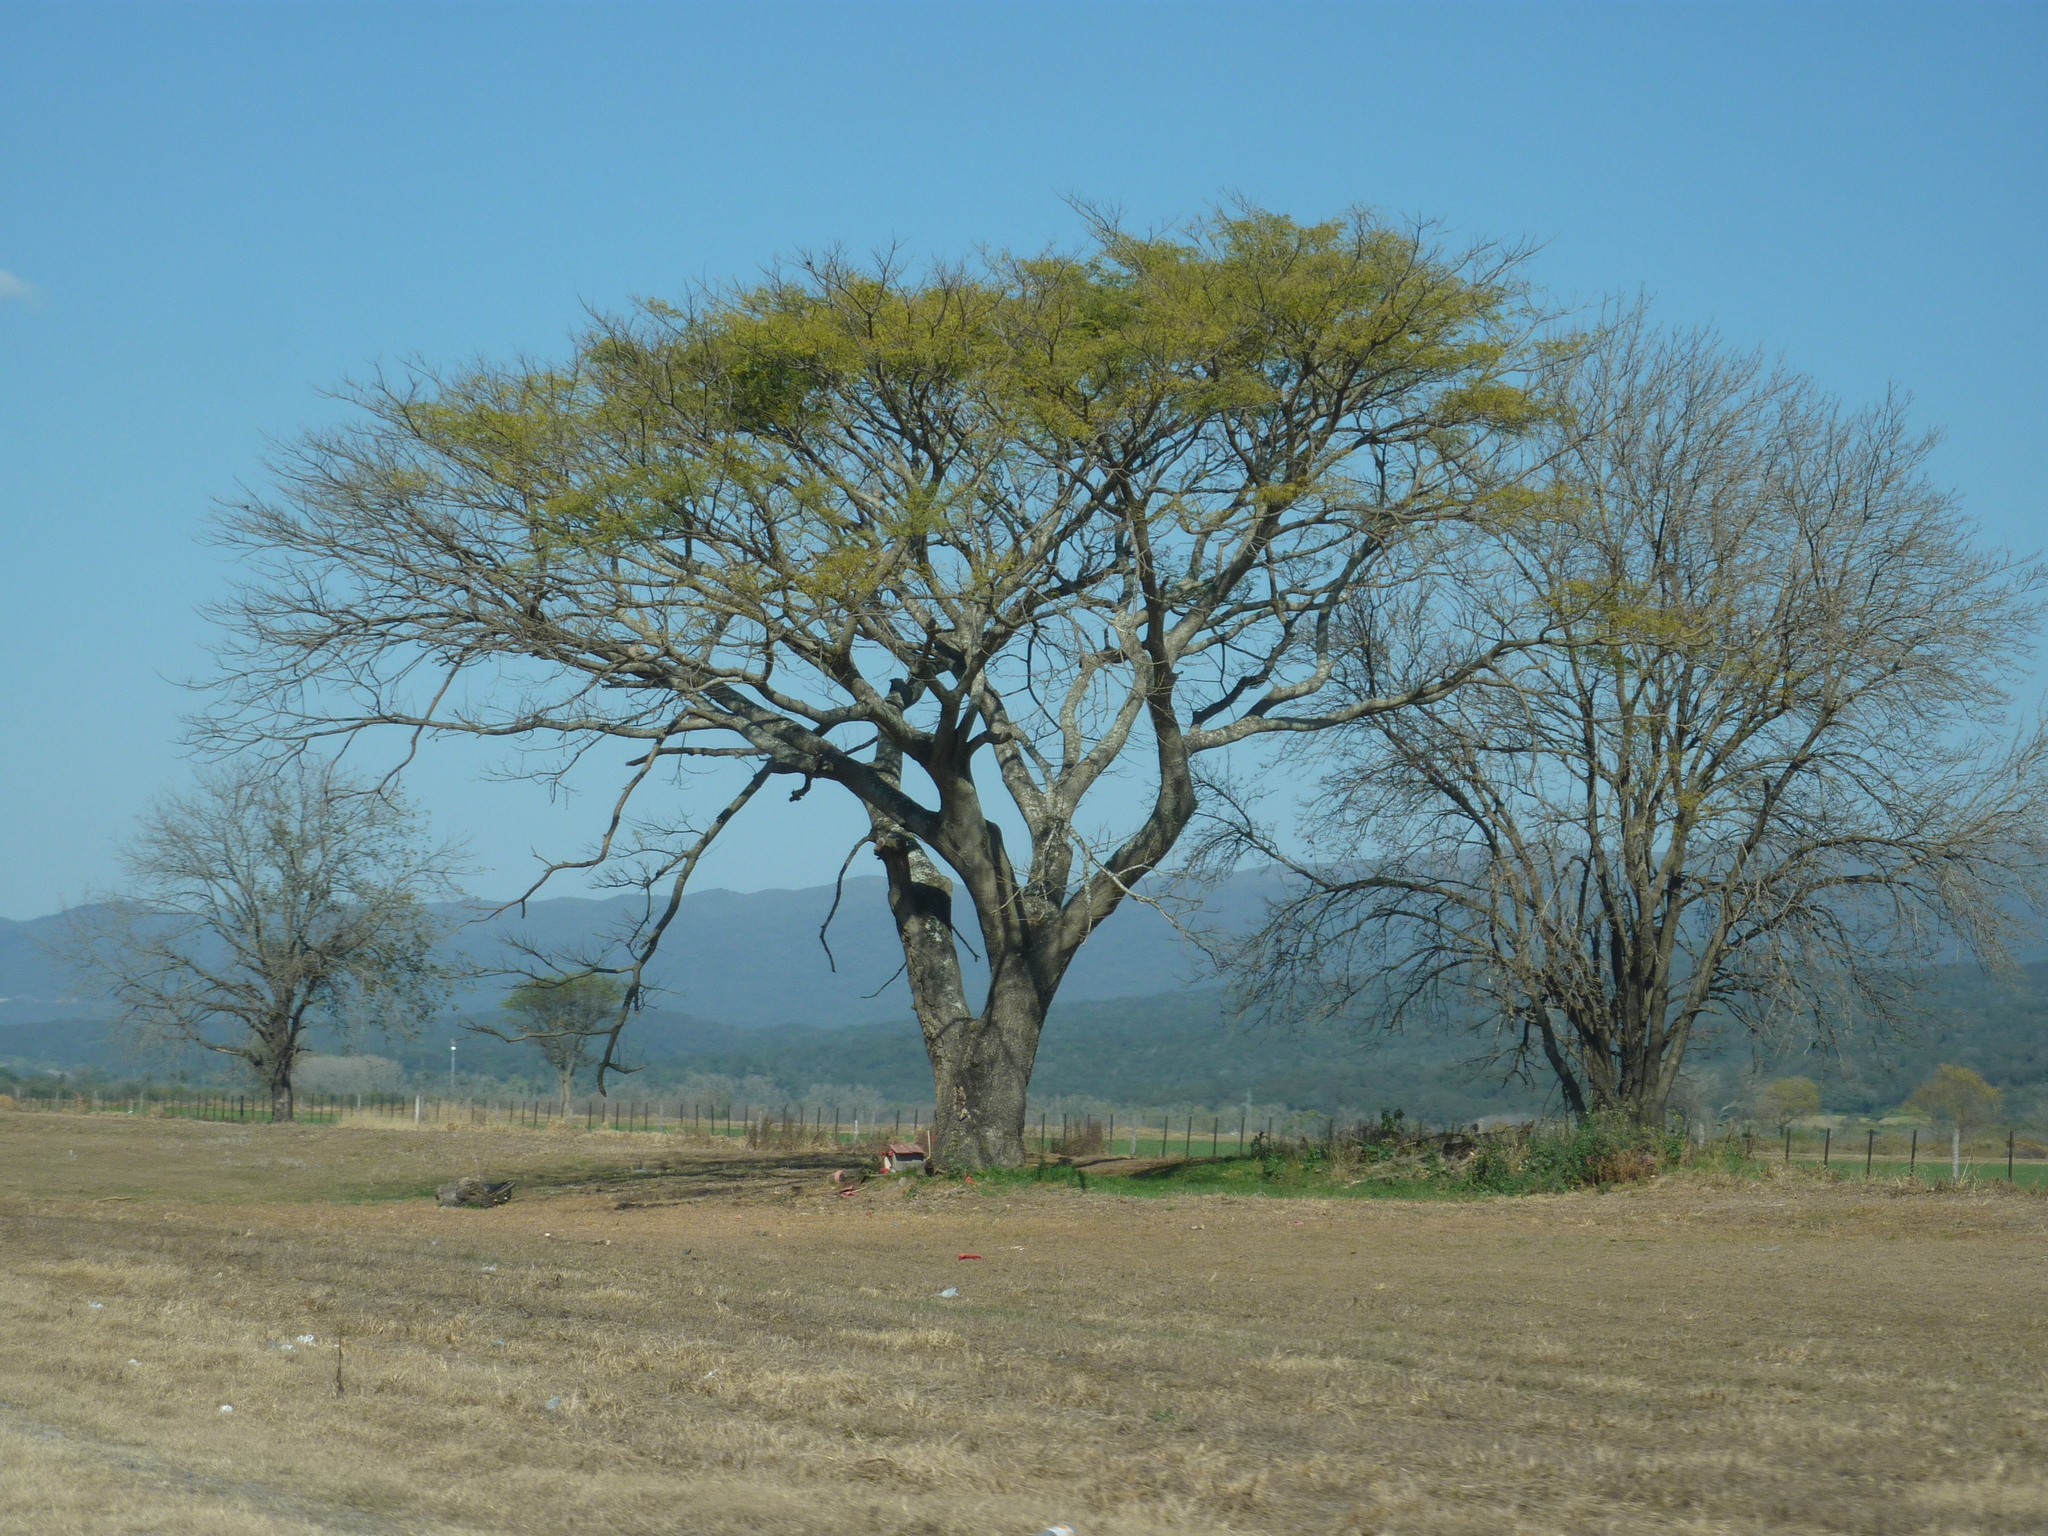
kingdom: Plantae
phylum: Tracheophyta
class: Magnoliopsida
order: Fabales
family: Fabaceae
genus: Enterolobium
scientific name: Enterolobium contortisiliquum
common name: Pacara earpod tree
